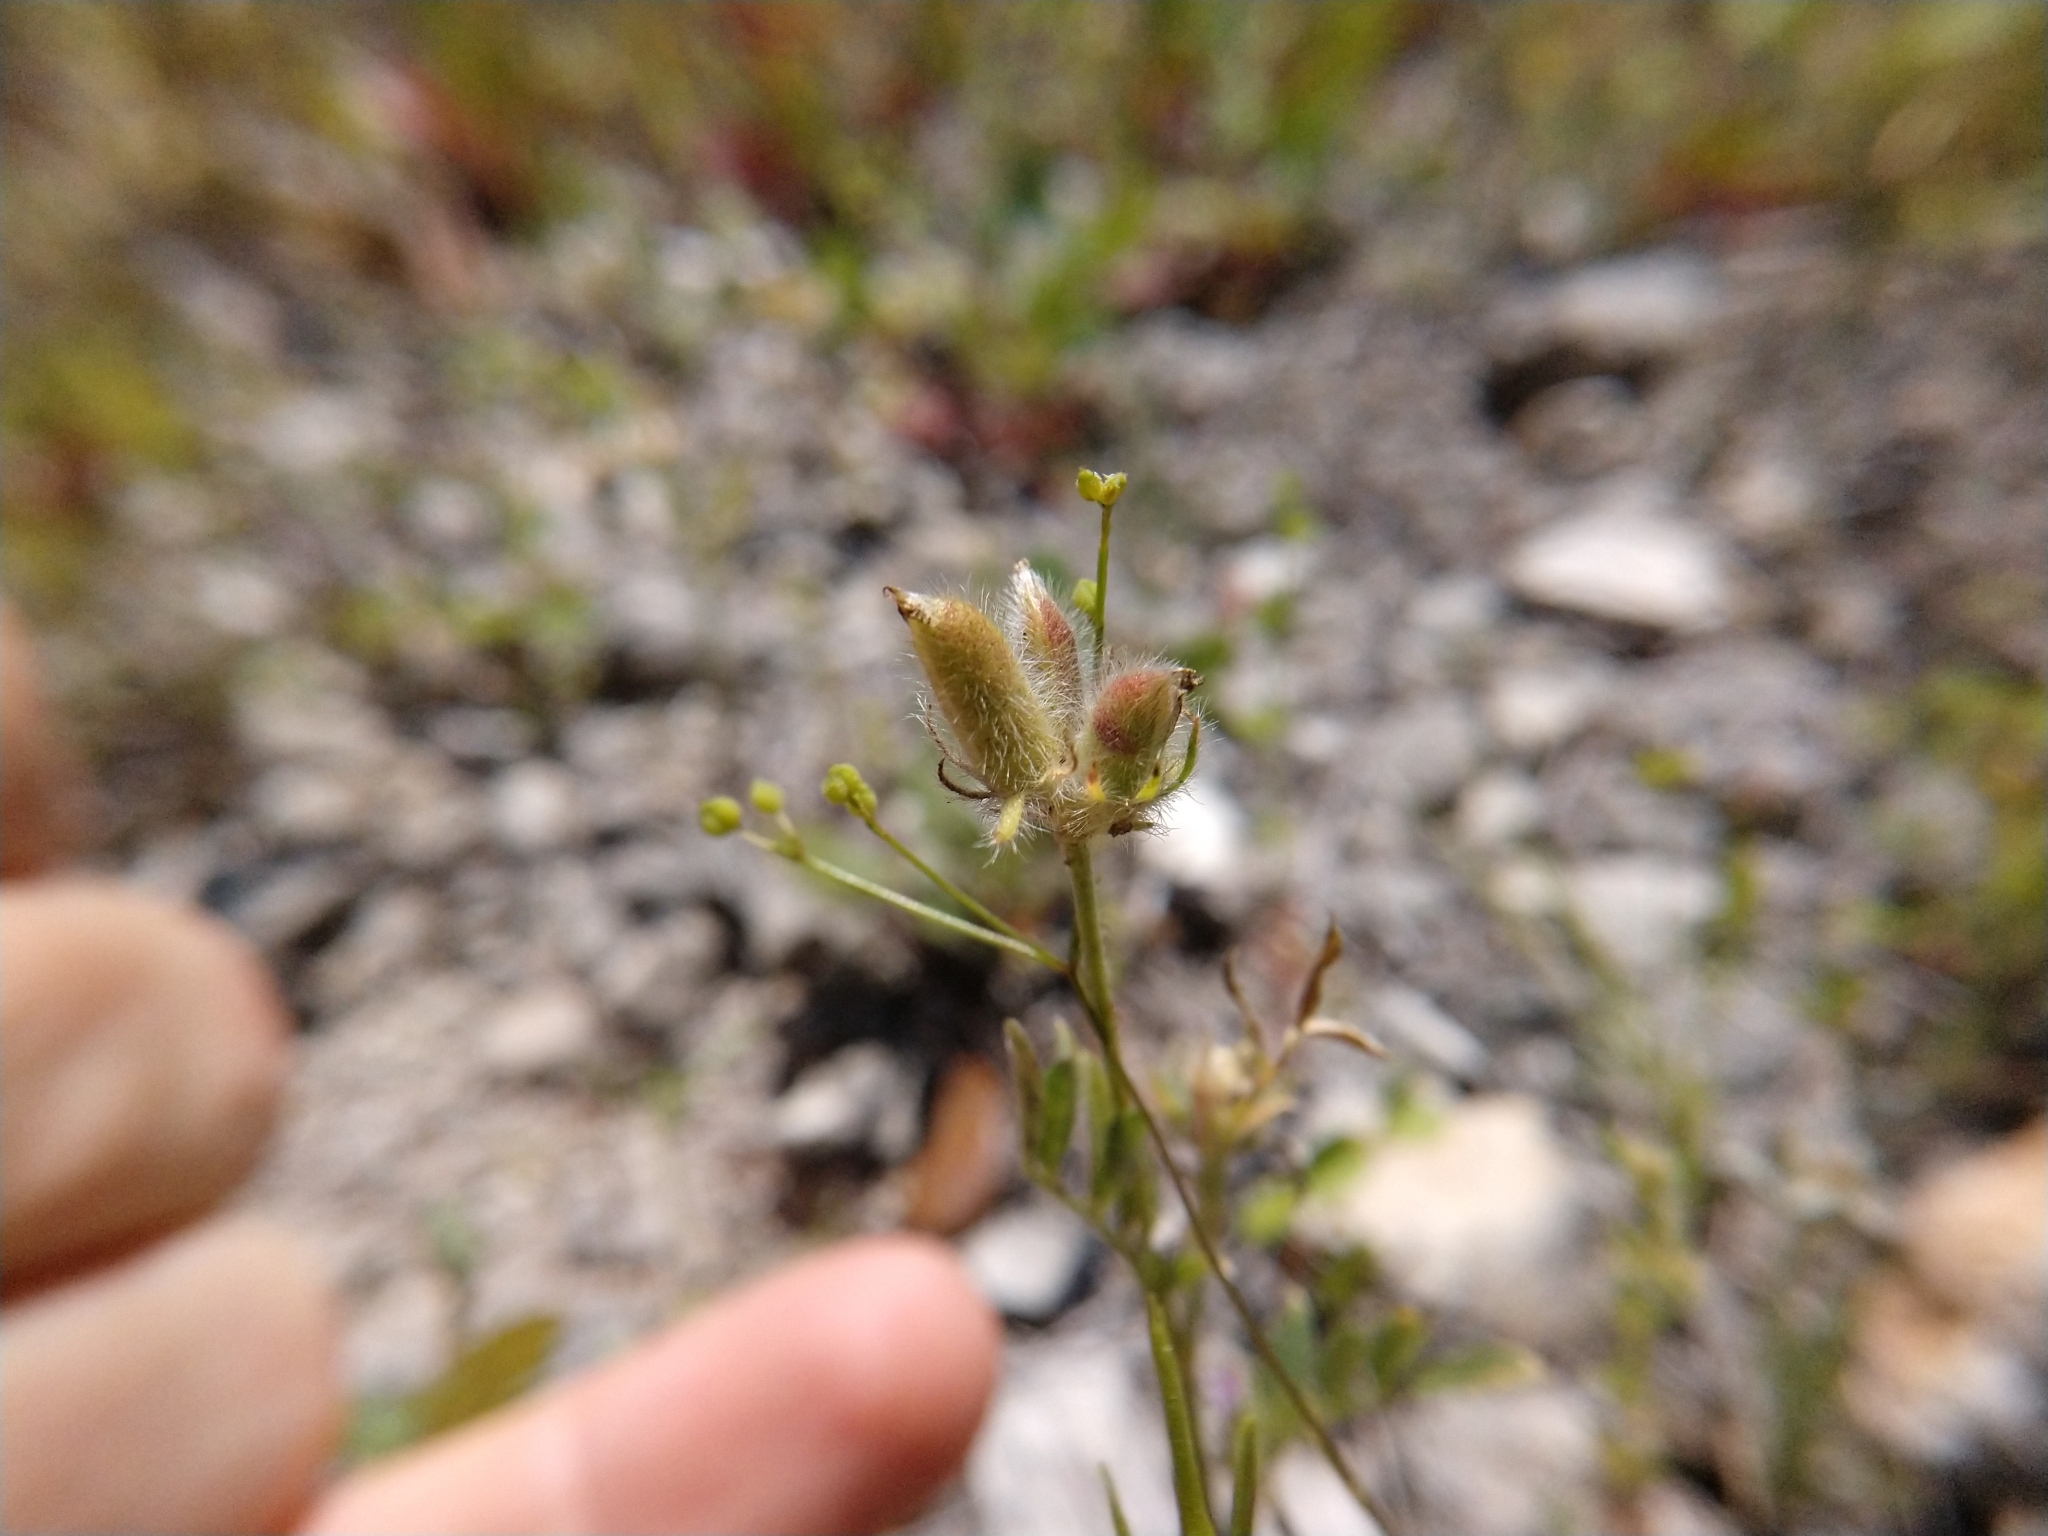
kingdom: Plantae
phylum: Tracheophyta
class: Magnoliopsida
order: Fabales
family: Fabaceae
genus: Astragalus
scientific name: Astragalus wrightii
